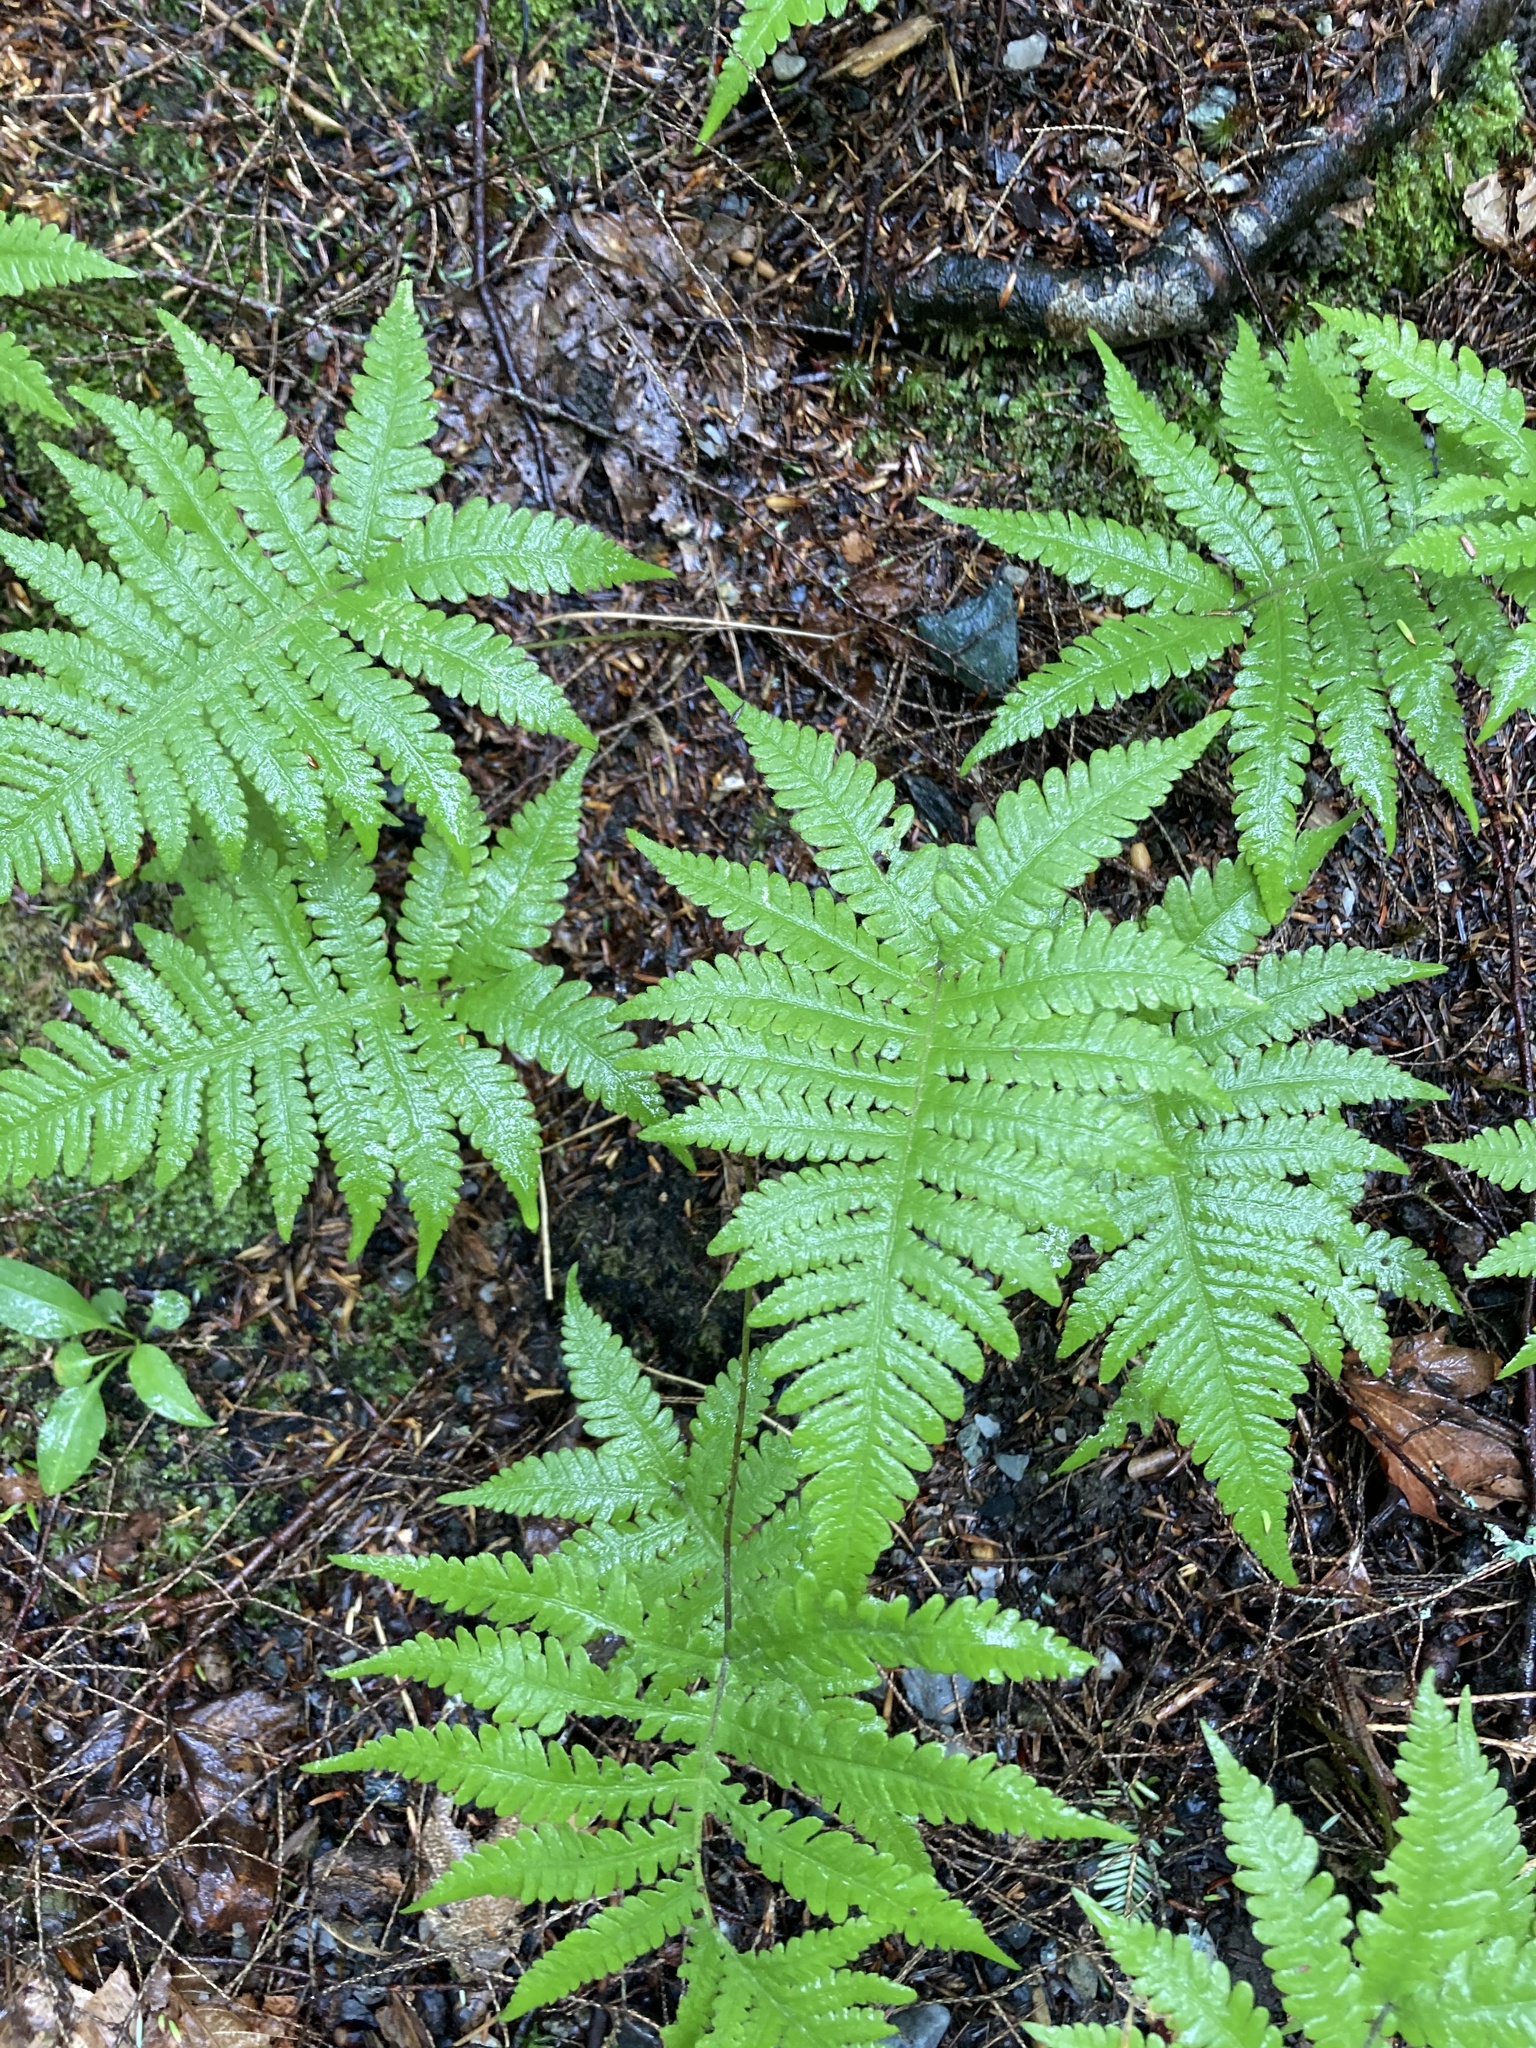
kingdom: Plantae
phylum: Tracheophyta
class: Polypodiopsida
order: Polypodiales
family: Thelypteridaceae
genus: Phegopteris
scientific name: Phegopteris connectilis
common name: Beech fern
